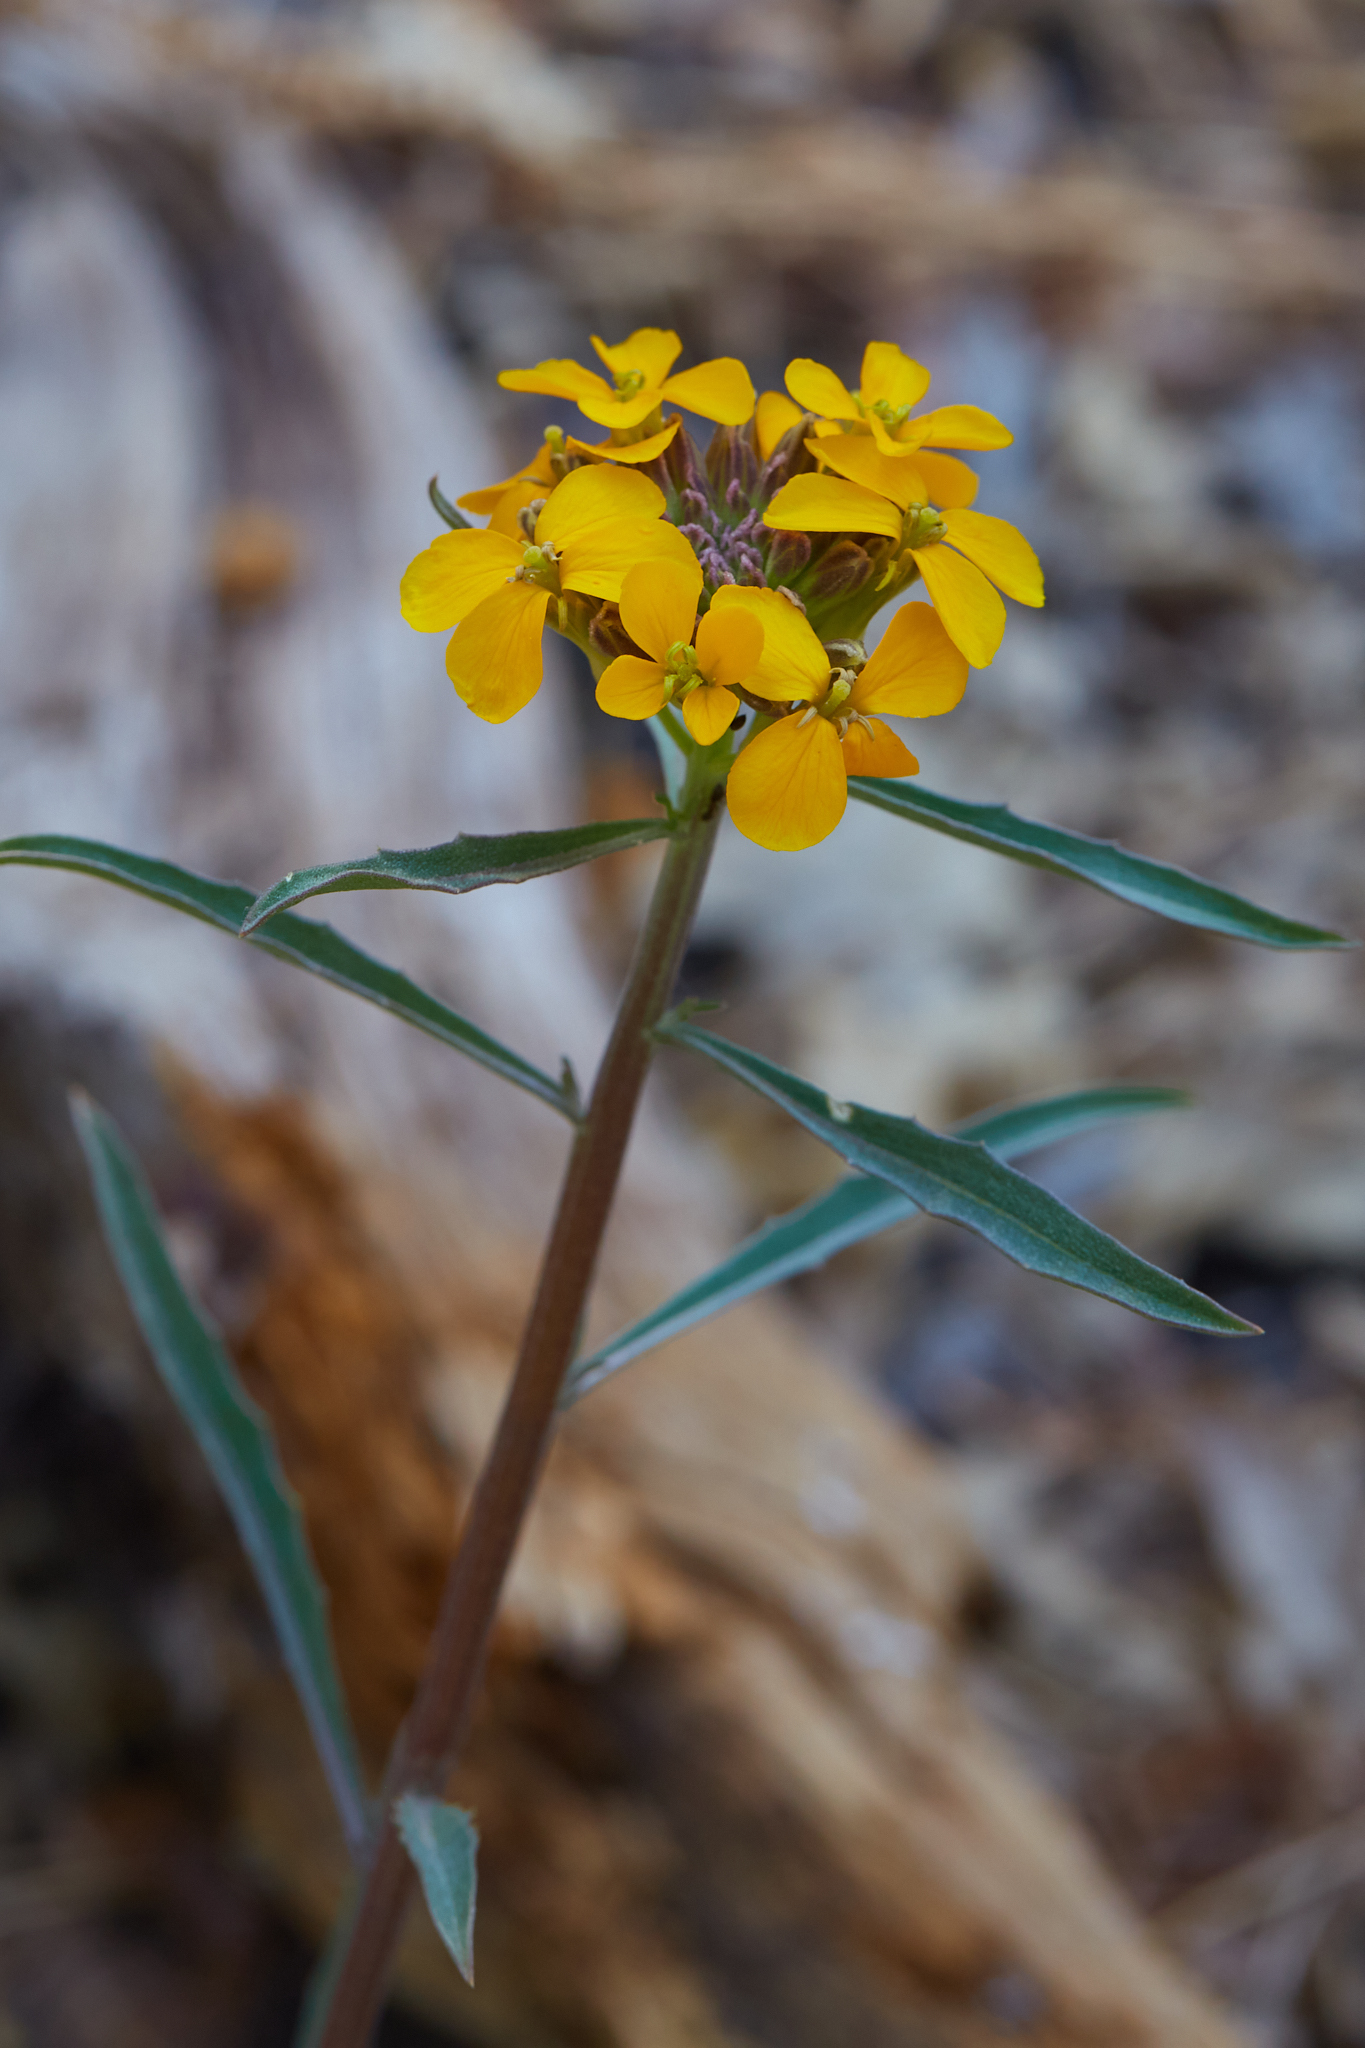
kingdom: Plantae
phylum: Tracheophyta
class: Magnoliopsida
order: Brassicales
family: Brassicaceae
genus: Erysimum
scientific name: Erysimum capitatum
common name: Western wallflower
